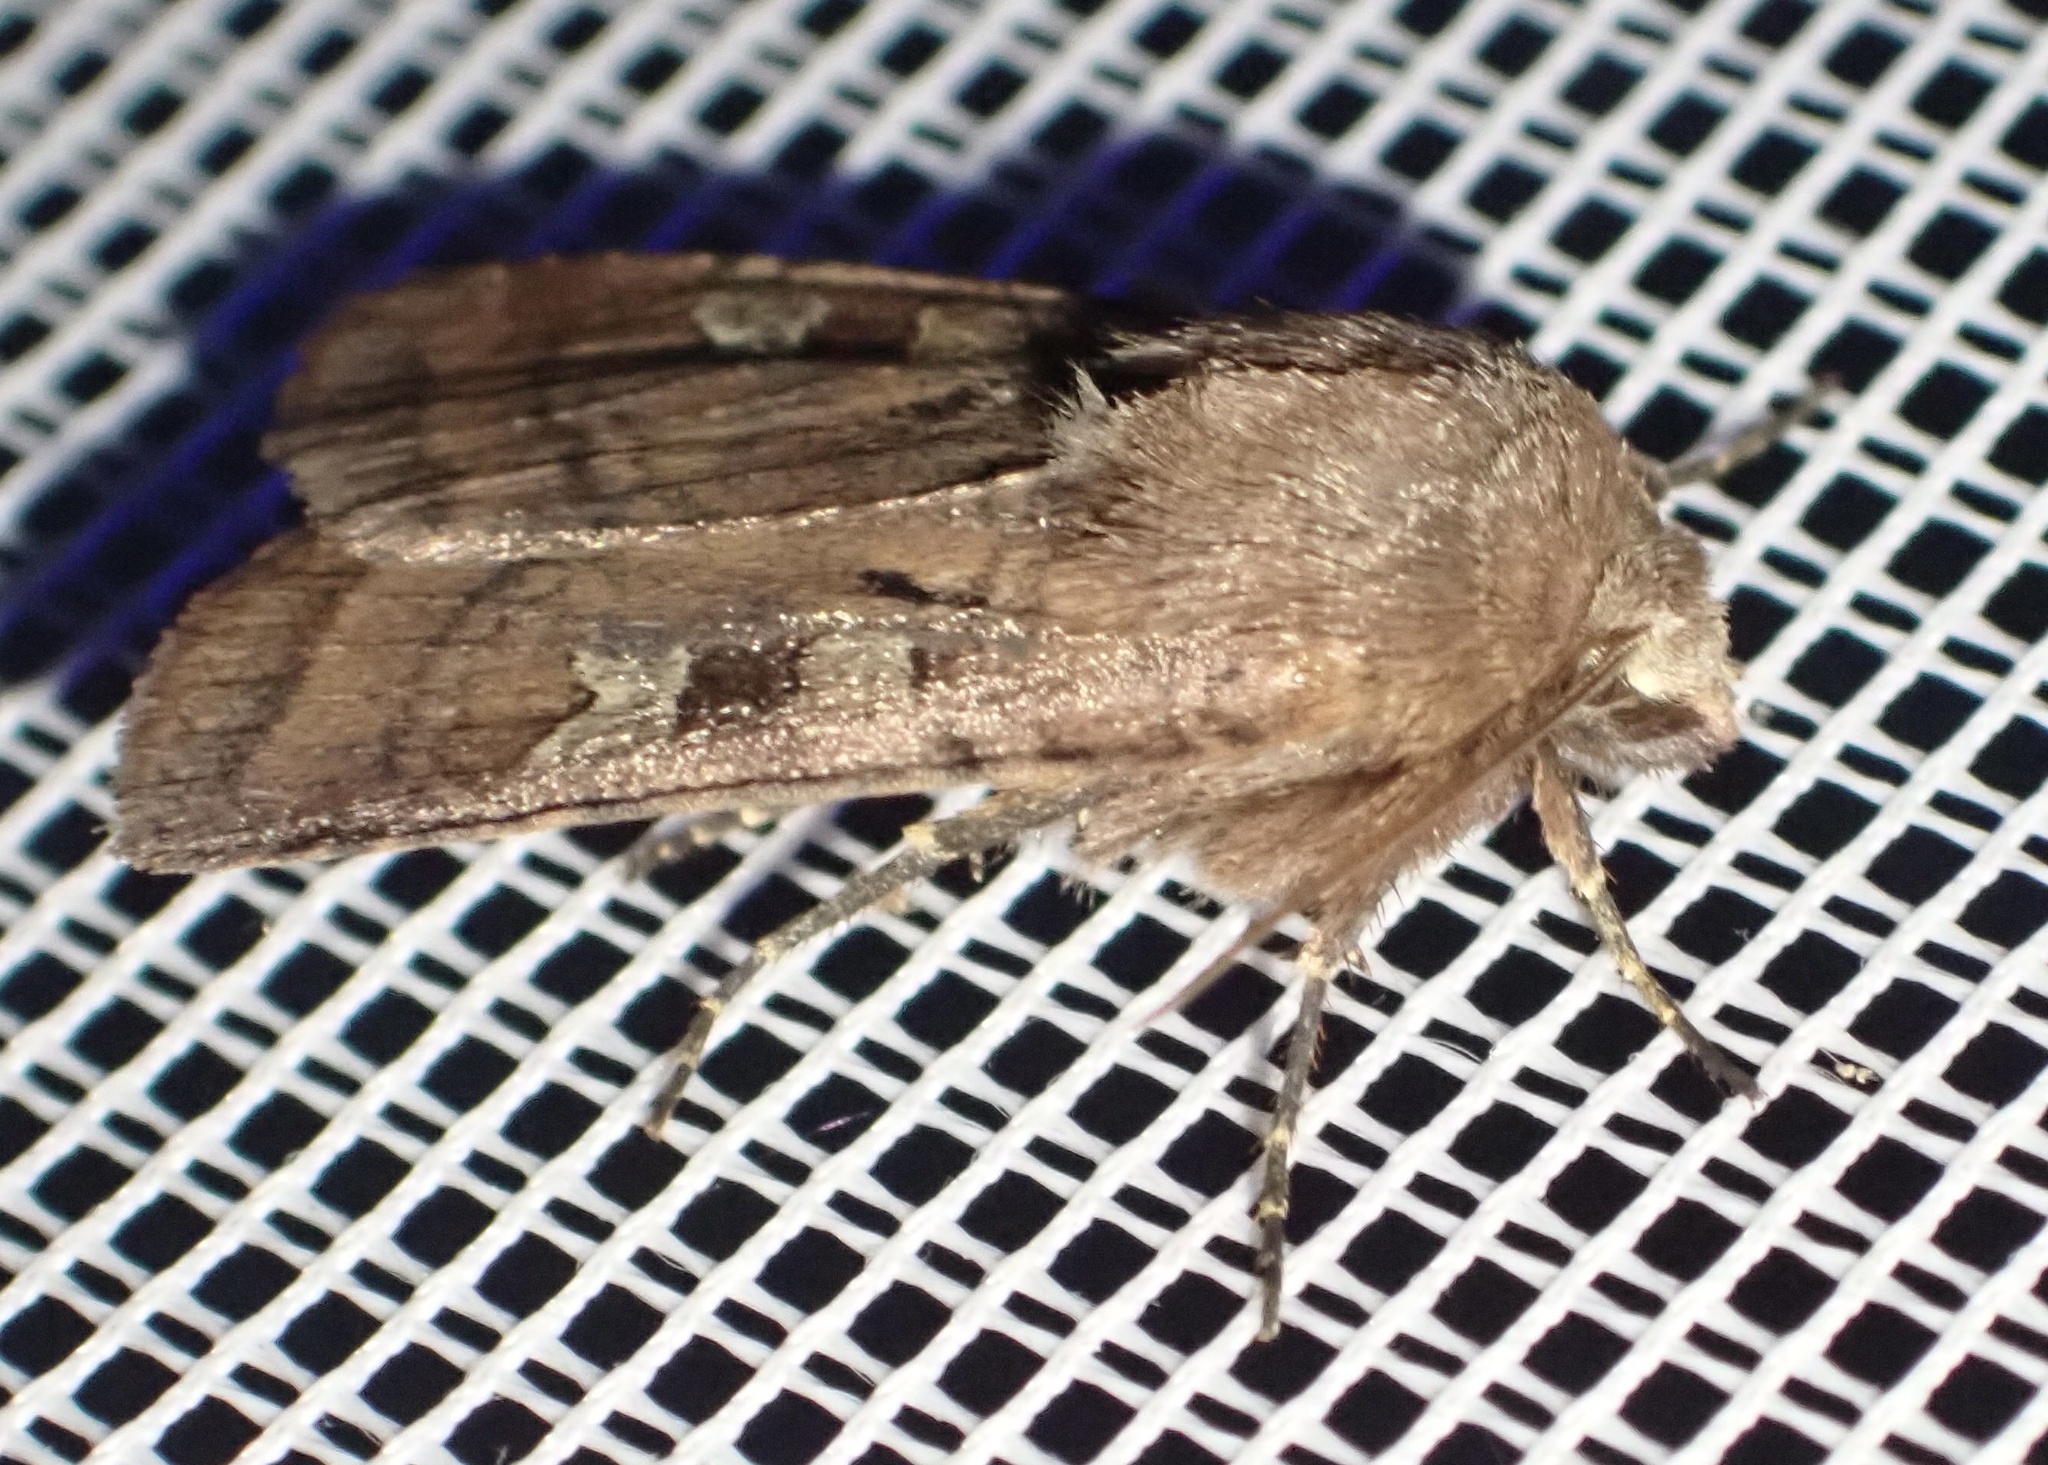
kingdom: Animalia
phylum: Arthropoda
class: Insecta
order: Lepidoptera
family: Noctuidae
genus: Diarsia
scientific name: Diarsia rubi
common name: Small square-spot
